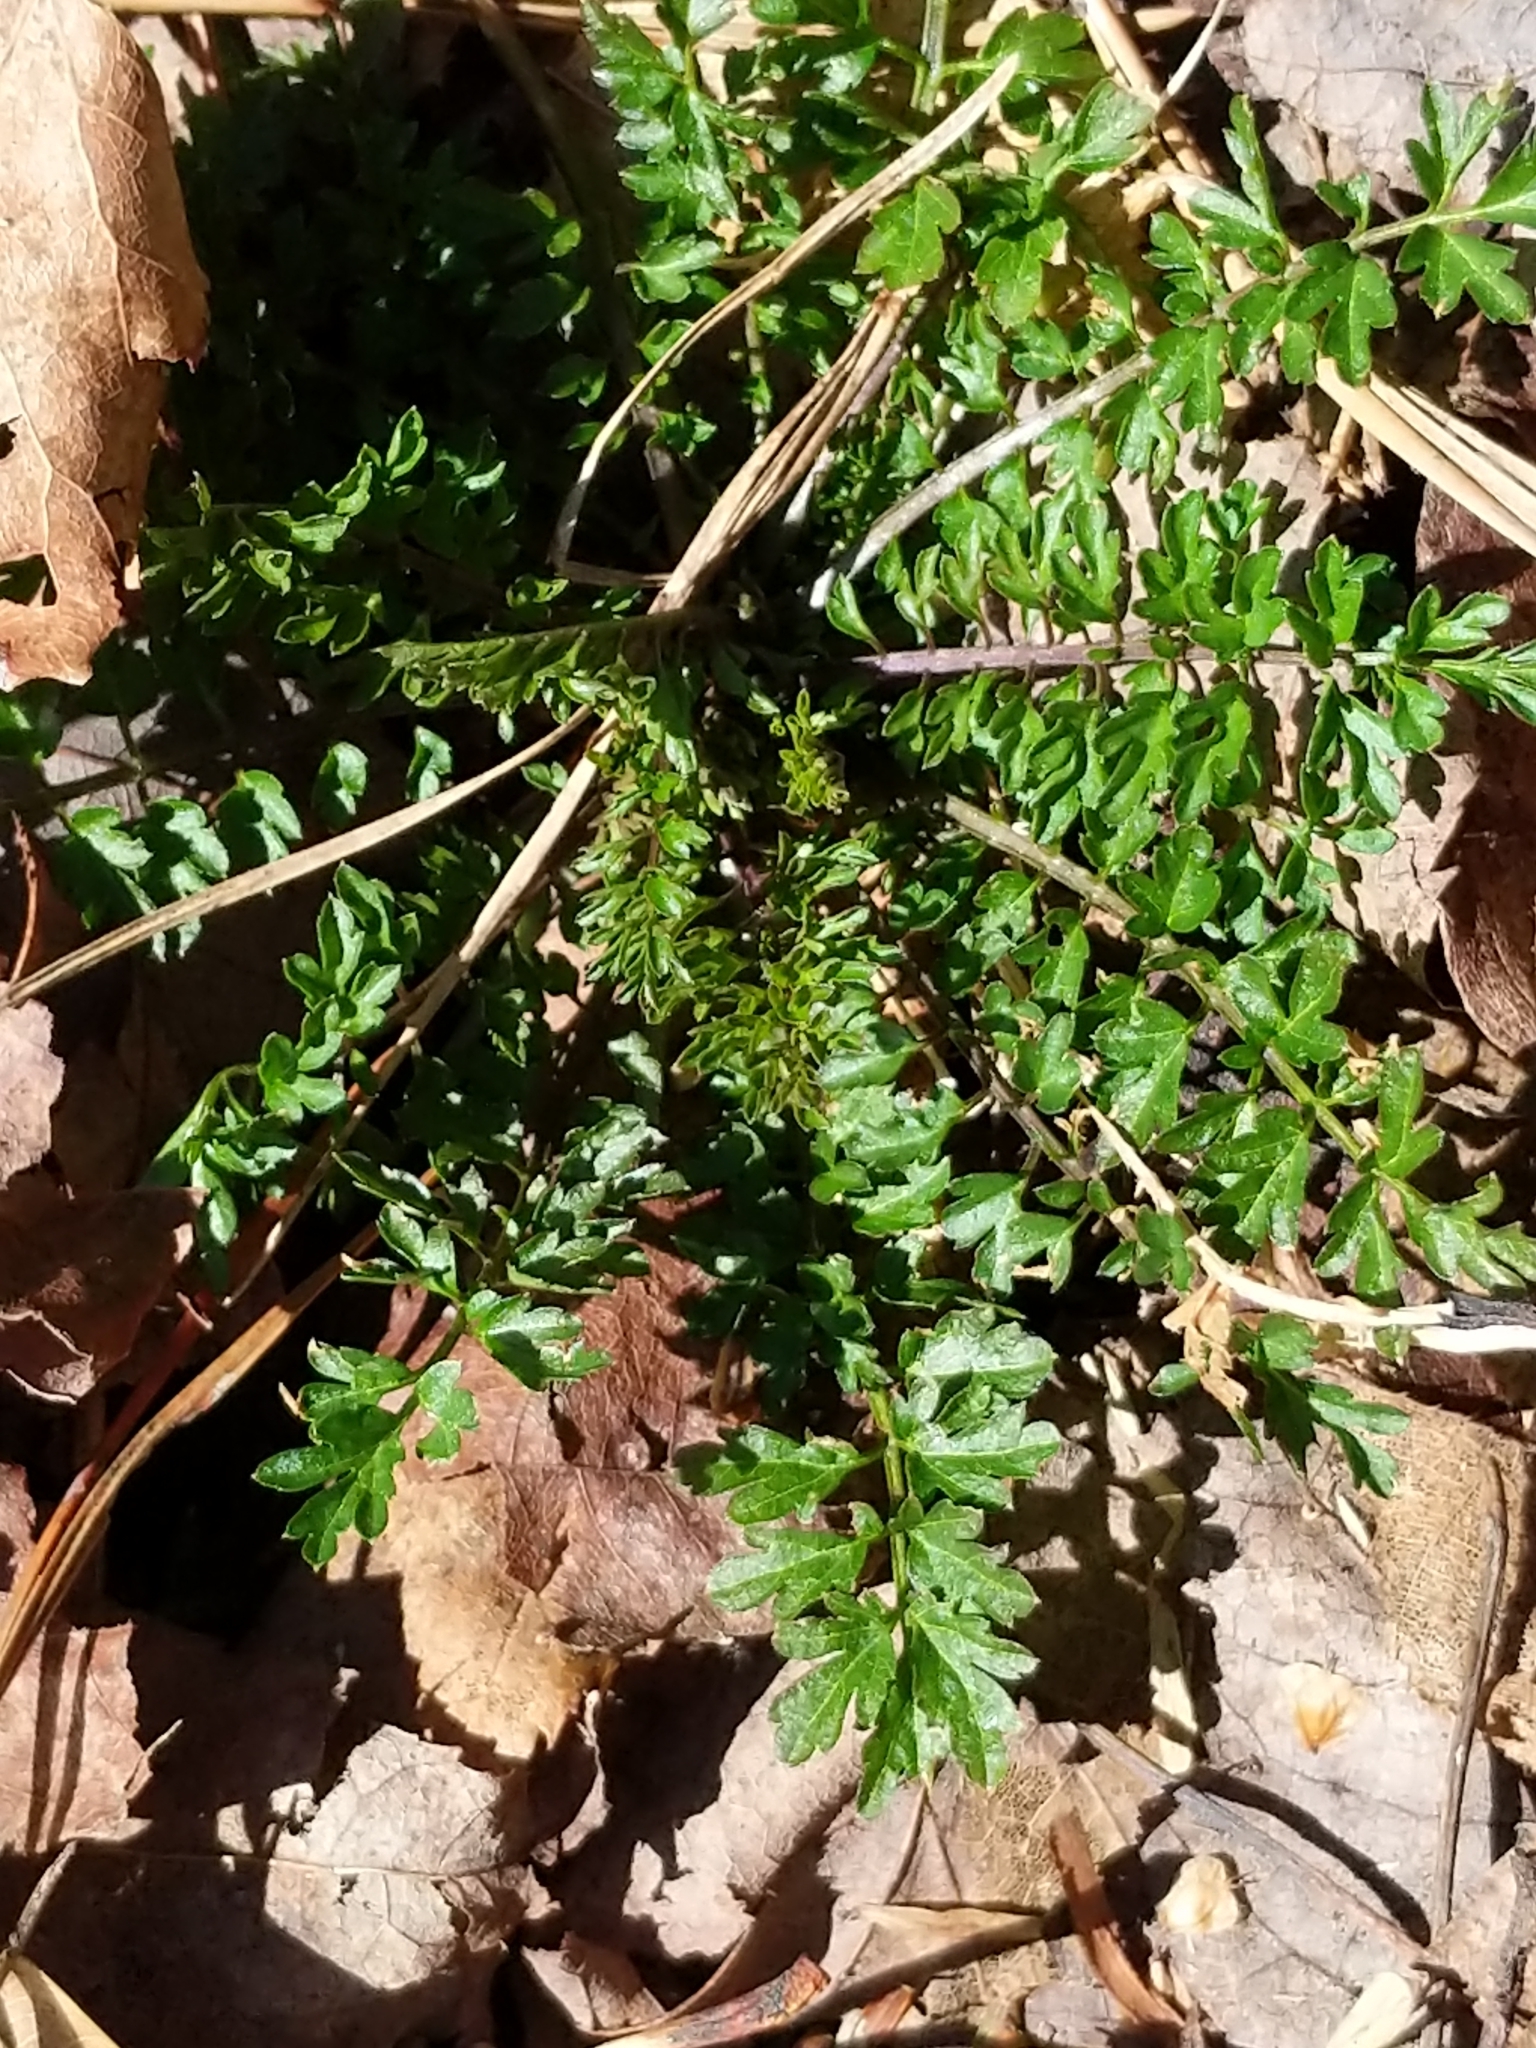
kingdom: Plantae
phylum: Tracheophyta
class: Magnoliopsida
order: Brassicales
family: Brassicaceae
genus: Cardamine
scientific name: Cardamine impatiens
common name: Narrow-leaved bitter-cress
